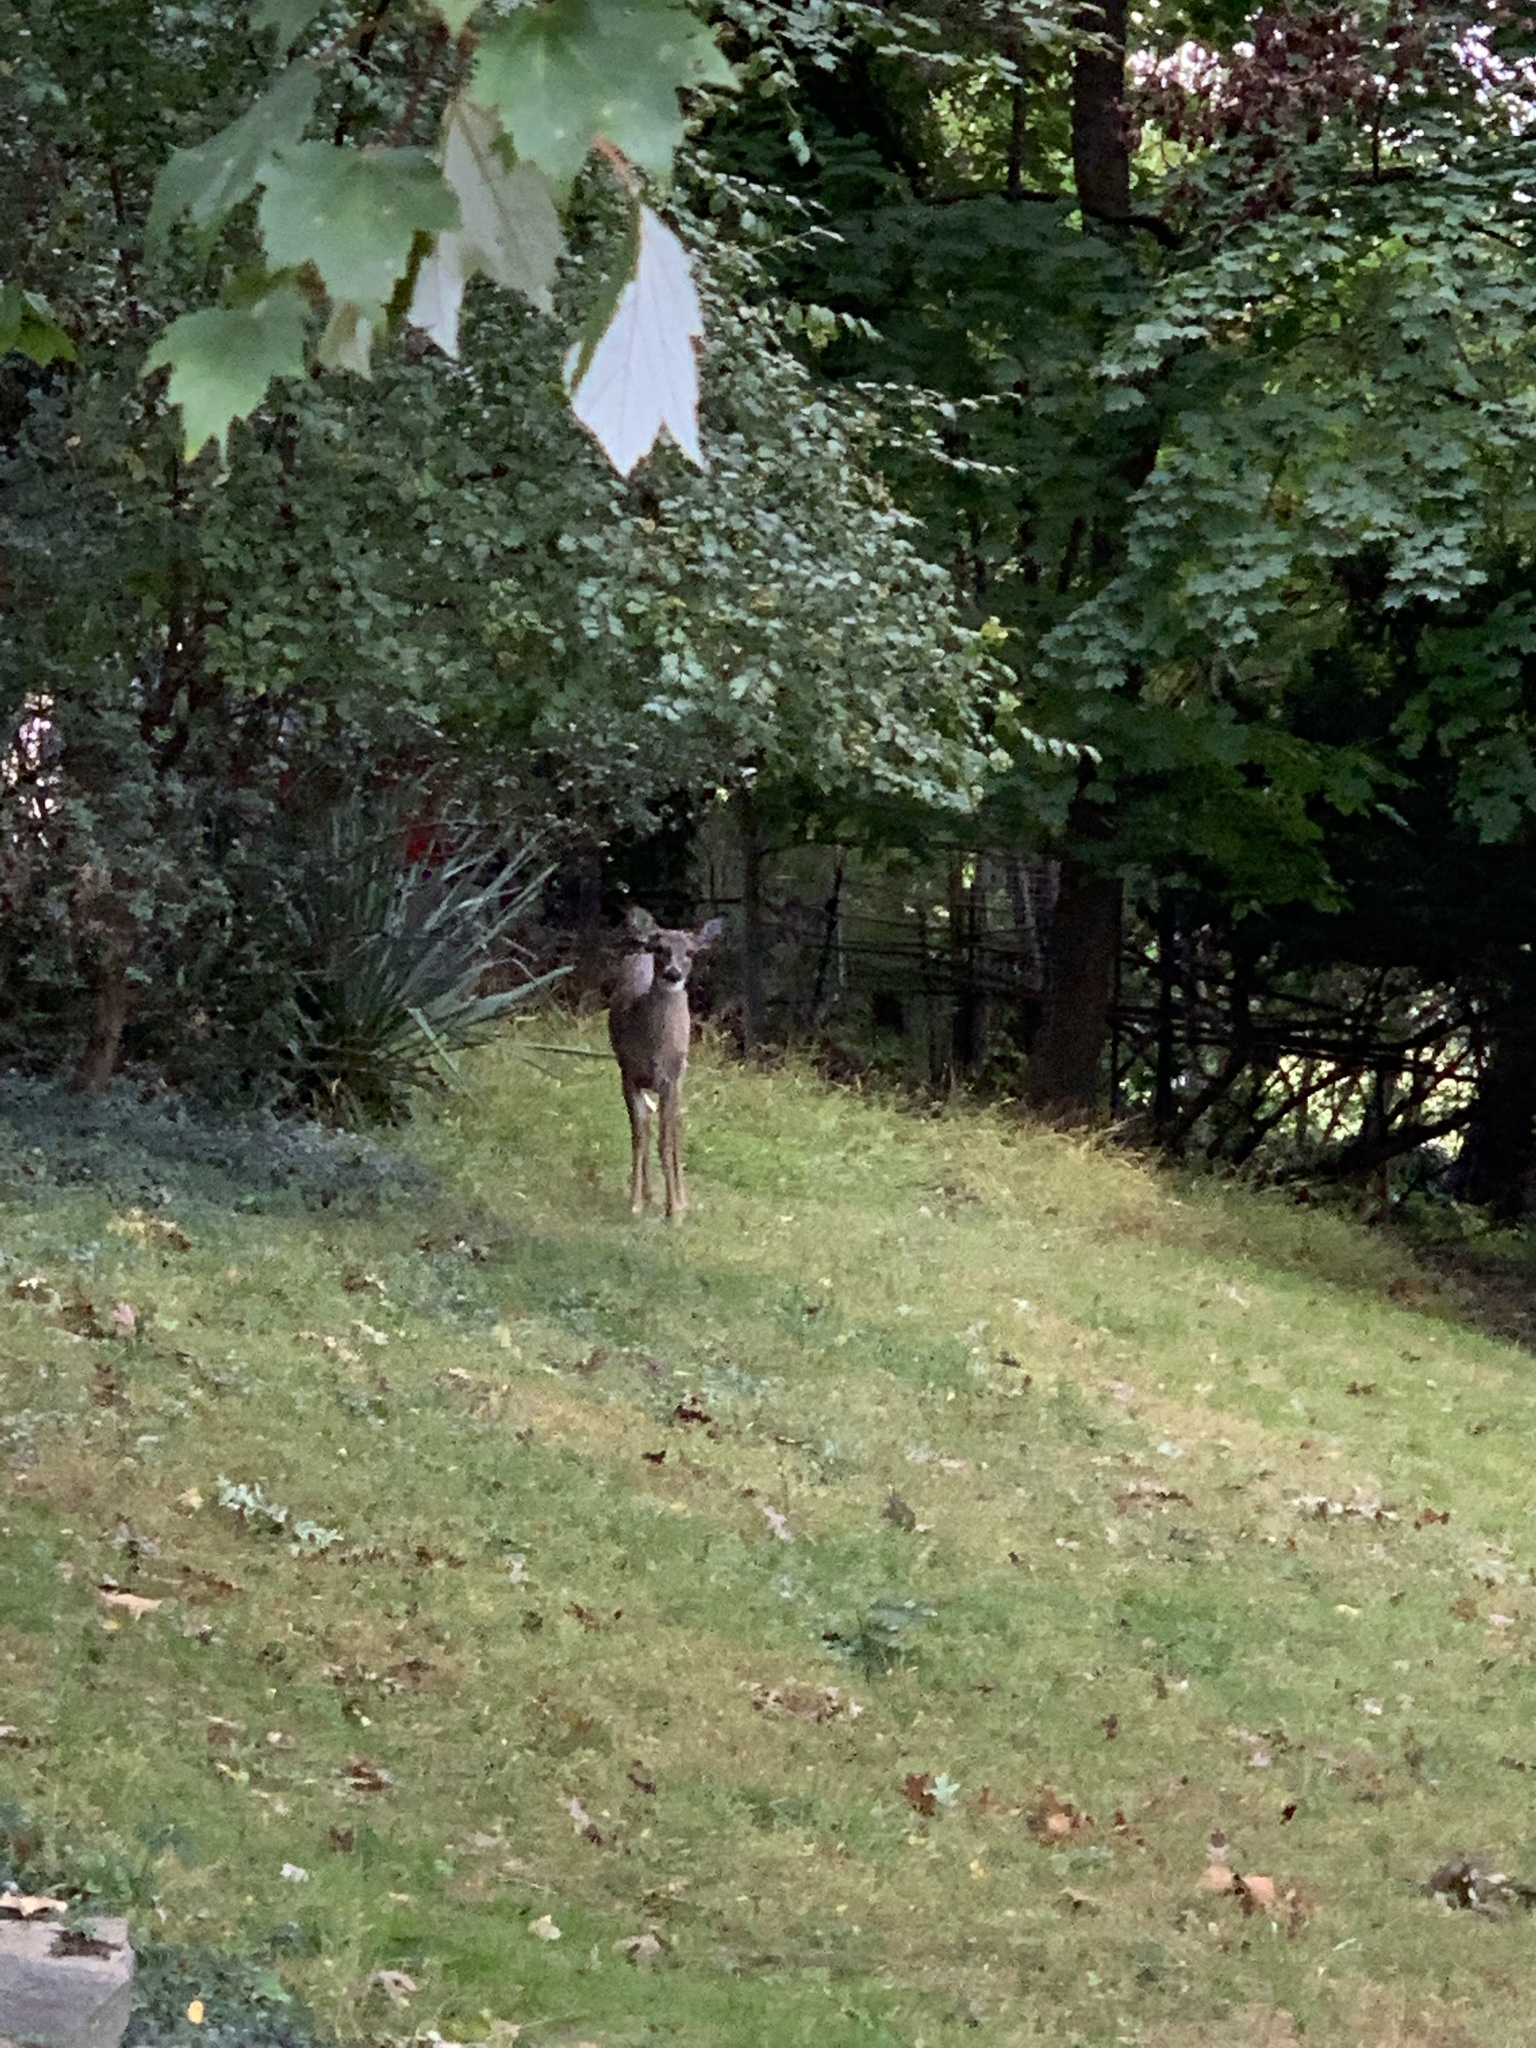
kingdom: Animalia
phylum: Chordata
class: Mammalia
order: Artiodactyla
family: Cervidae
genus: Odocoileus
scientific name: Odocoileus virginianus
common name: White-tailed deer
